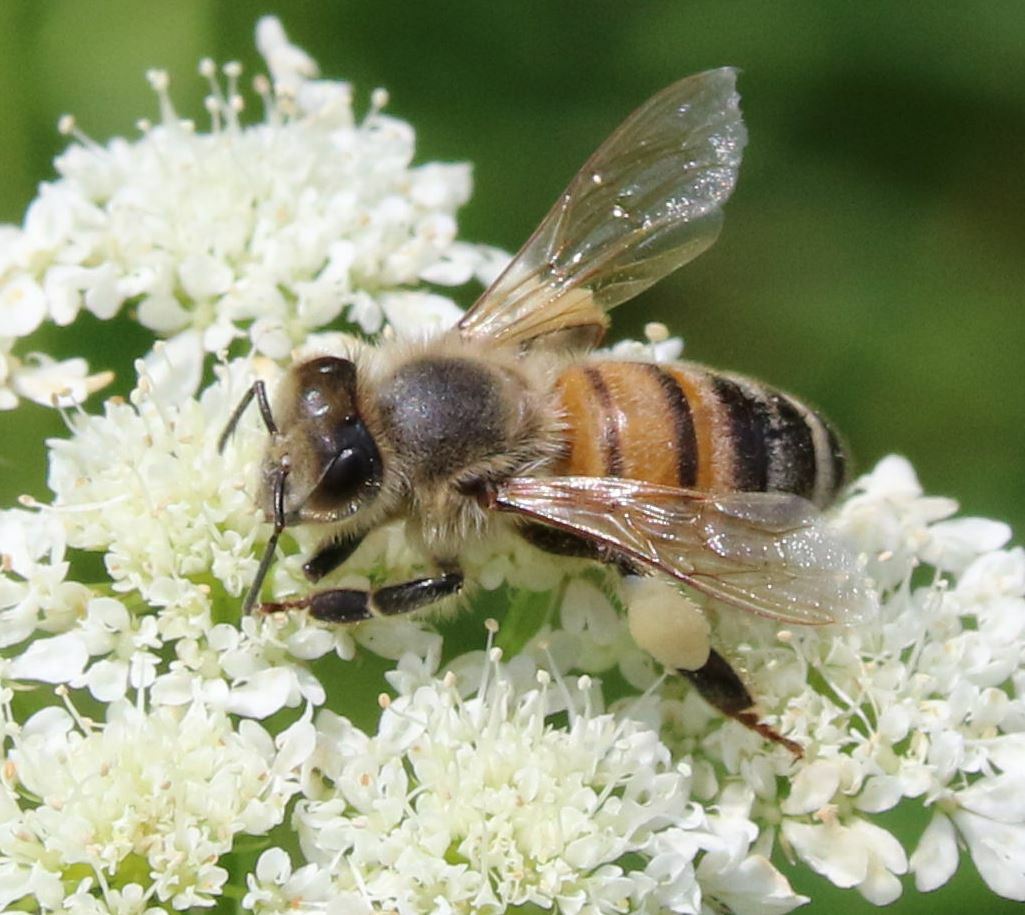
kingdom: Animalia
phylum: Arthropoda
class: Insecta
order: Hymenoptera
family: Apidae
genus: Apis
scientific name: Apis mellifera
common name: Honey bee
